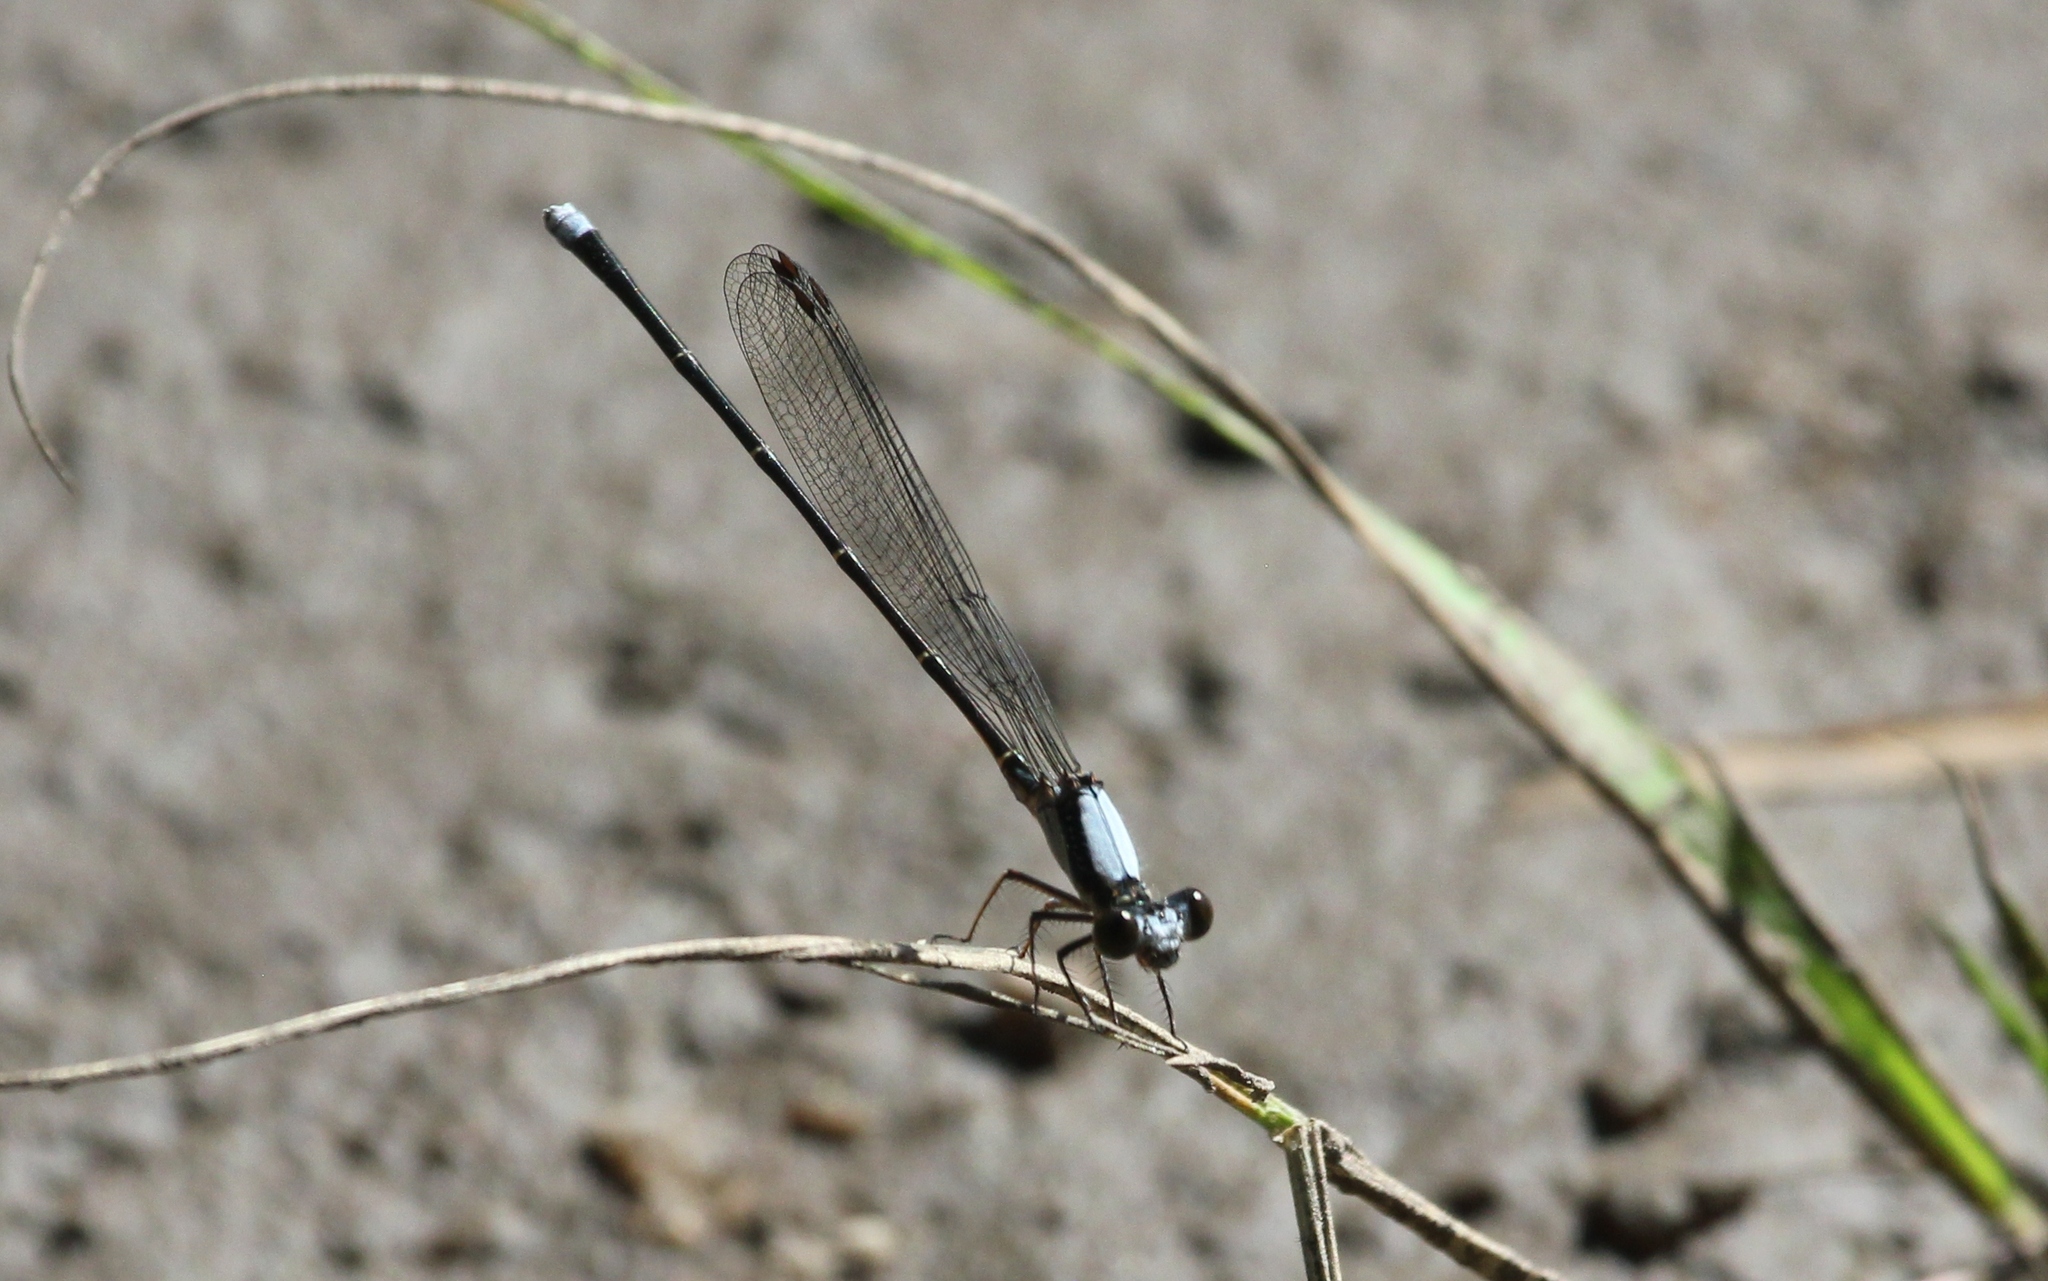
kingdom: Animalia
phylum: Arthropoda
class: Insecta
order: Odonata
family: Coenagrionidae
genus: Argia
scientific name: Argia moesta
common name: Powdered dancer
